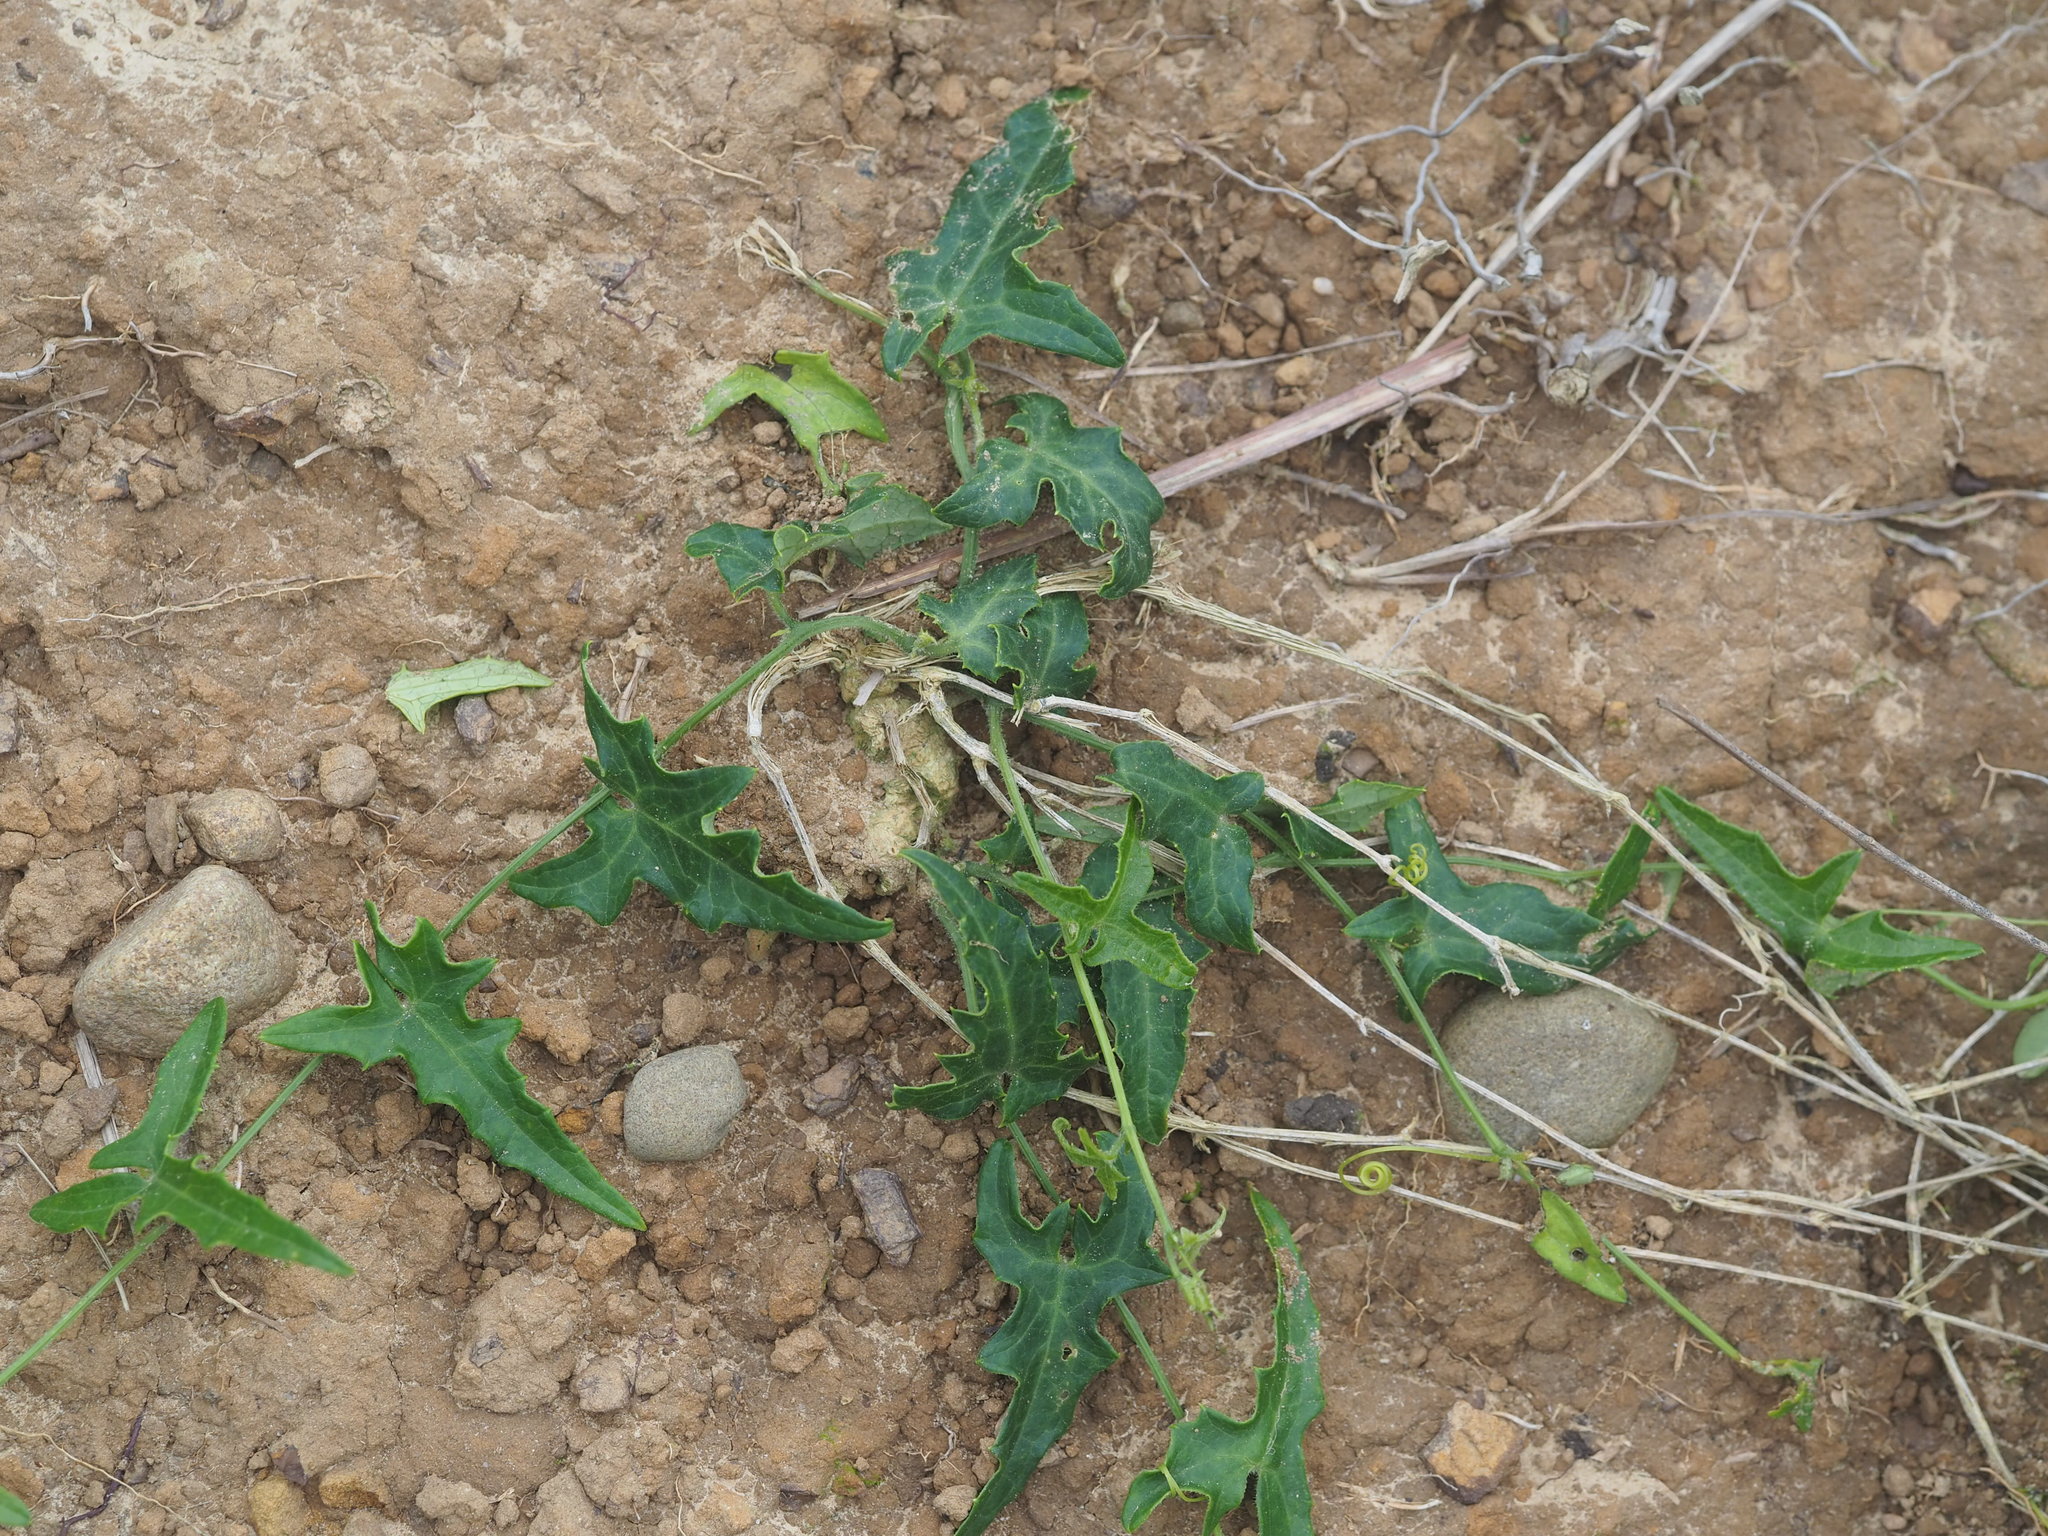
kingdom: Plantae
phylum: Tracheophyta
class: Magnoliopsida
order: Cucurbitales
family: Cucurbitaceae
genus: Solena
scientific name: Solena amplexicaulis
